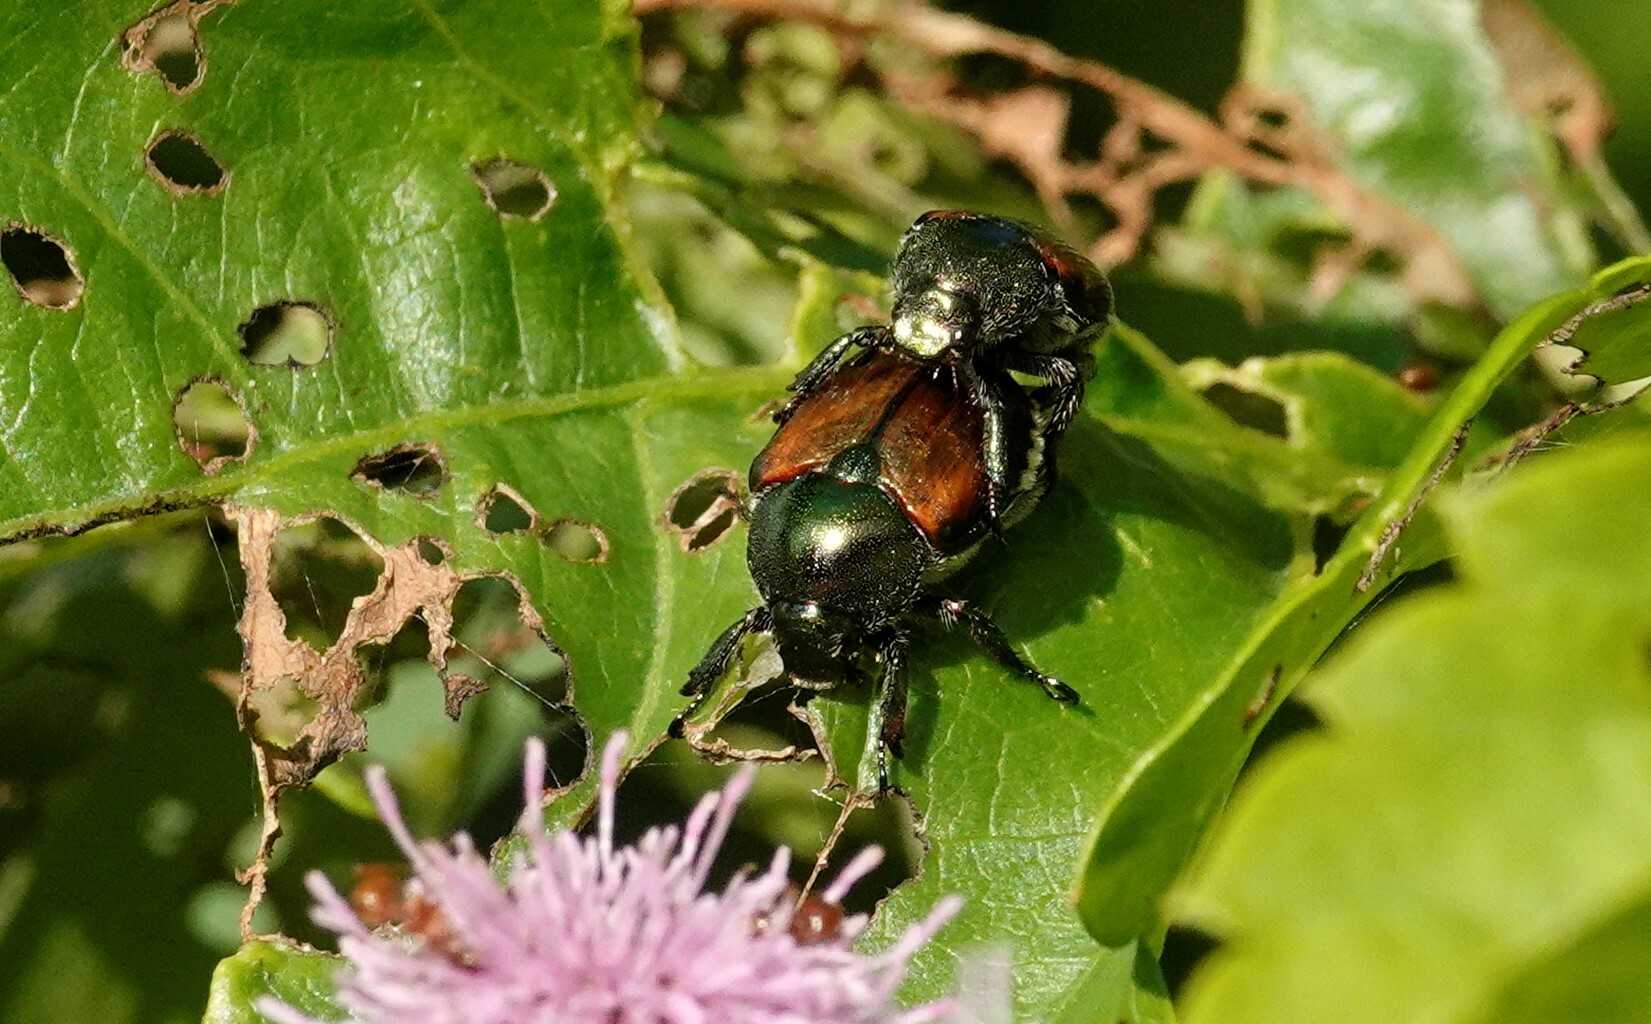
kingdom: Animalia
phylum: Arthropoda
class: Insecta
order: Coleoptera
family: Scarabaeidae
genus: Popillia
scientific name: Popillia japonica
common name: Japanese beetle
